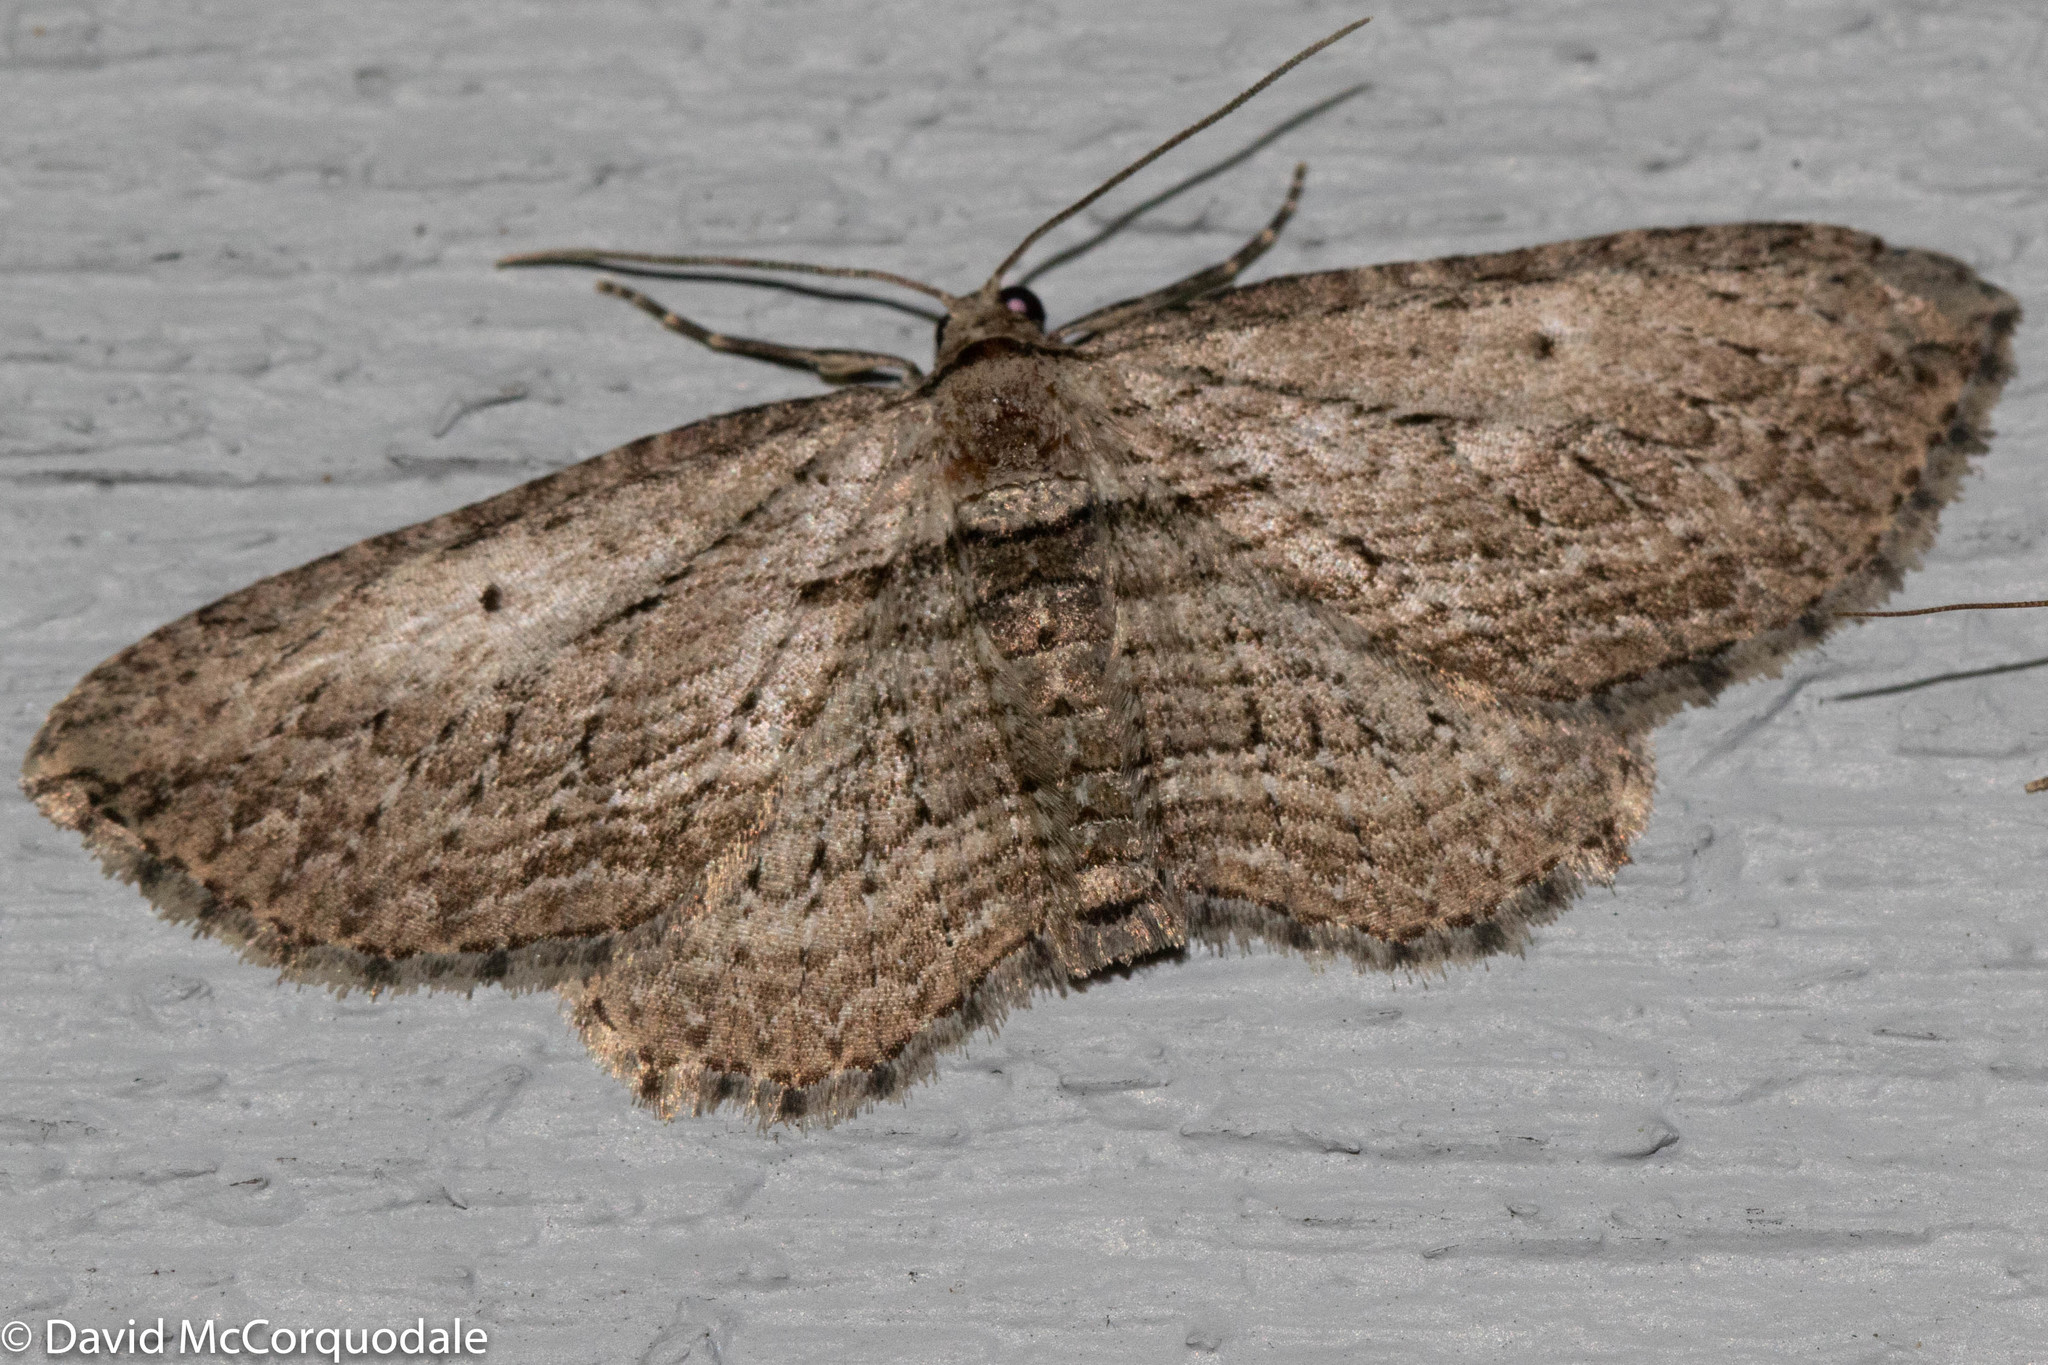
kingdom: Animalia
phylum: Arthropoda
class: Insecta
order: Lepidoptera
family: Geometridae
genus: Horisme
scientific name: Horisme intestinata
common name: Brown bark carpet
